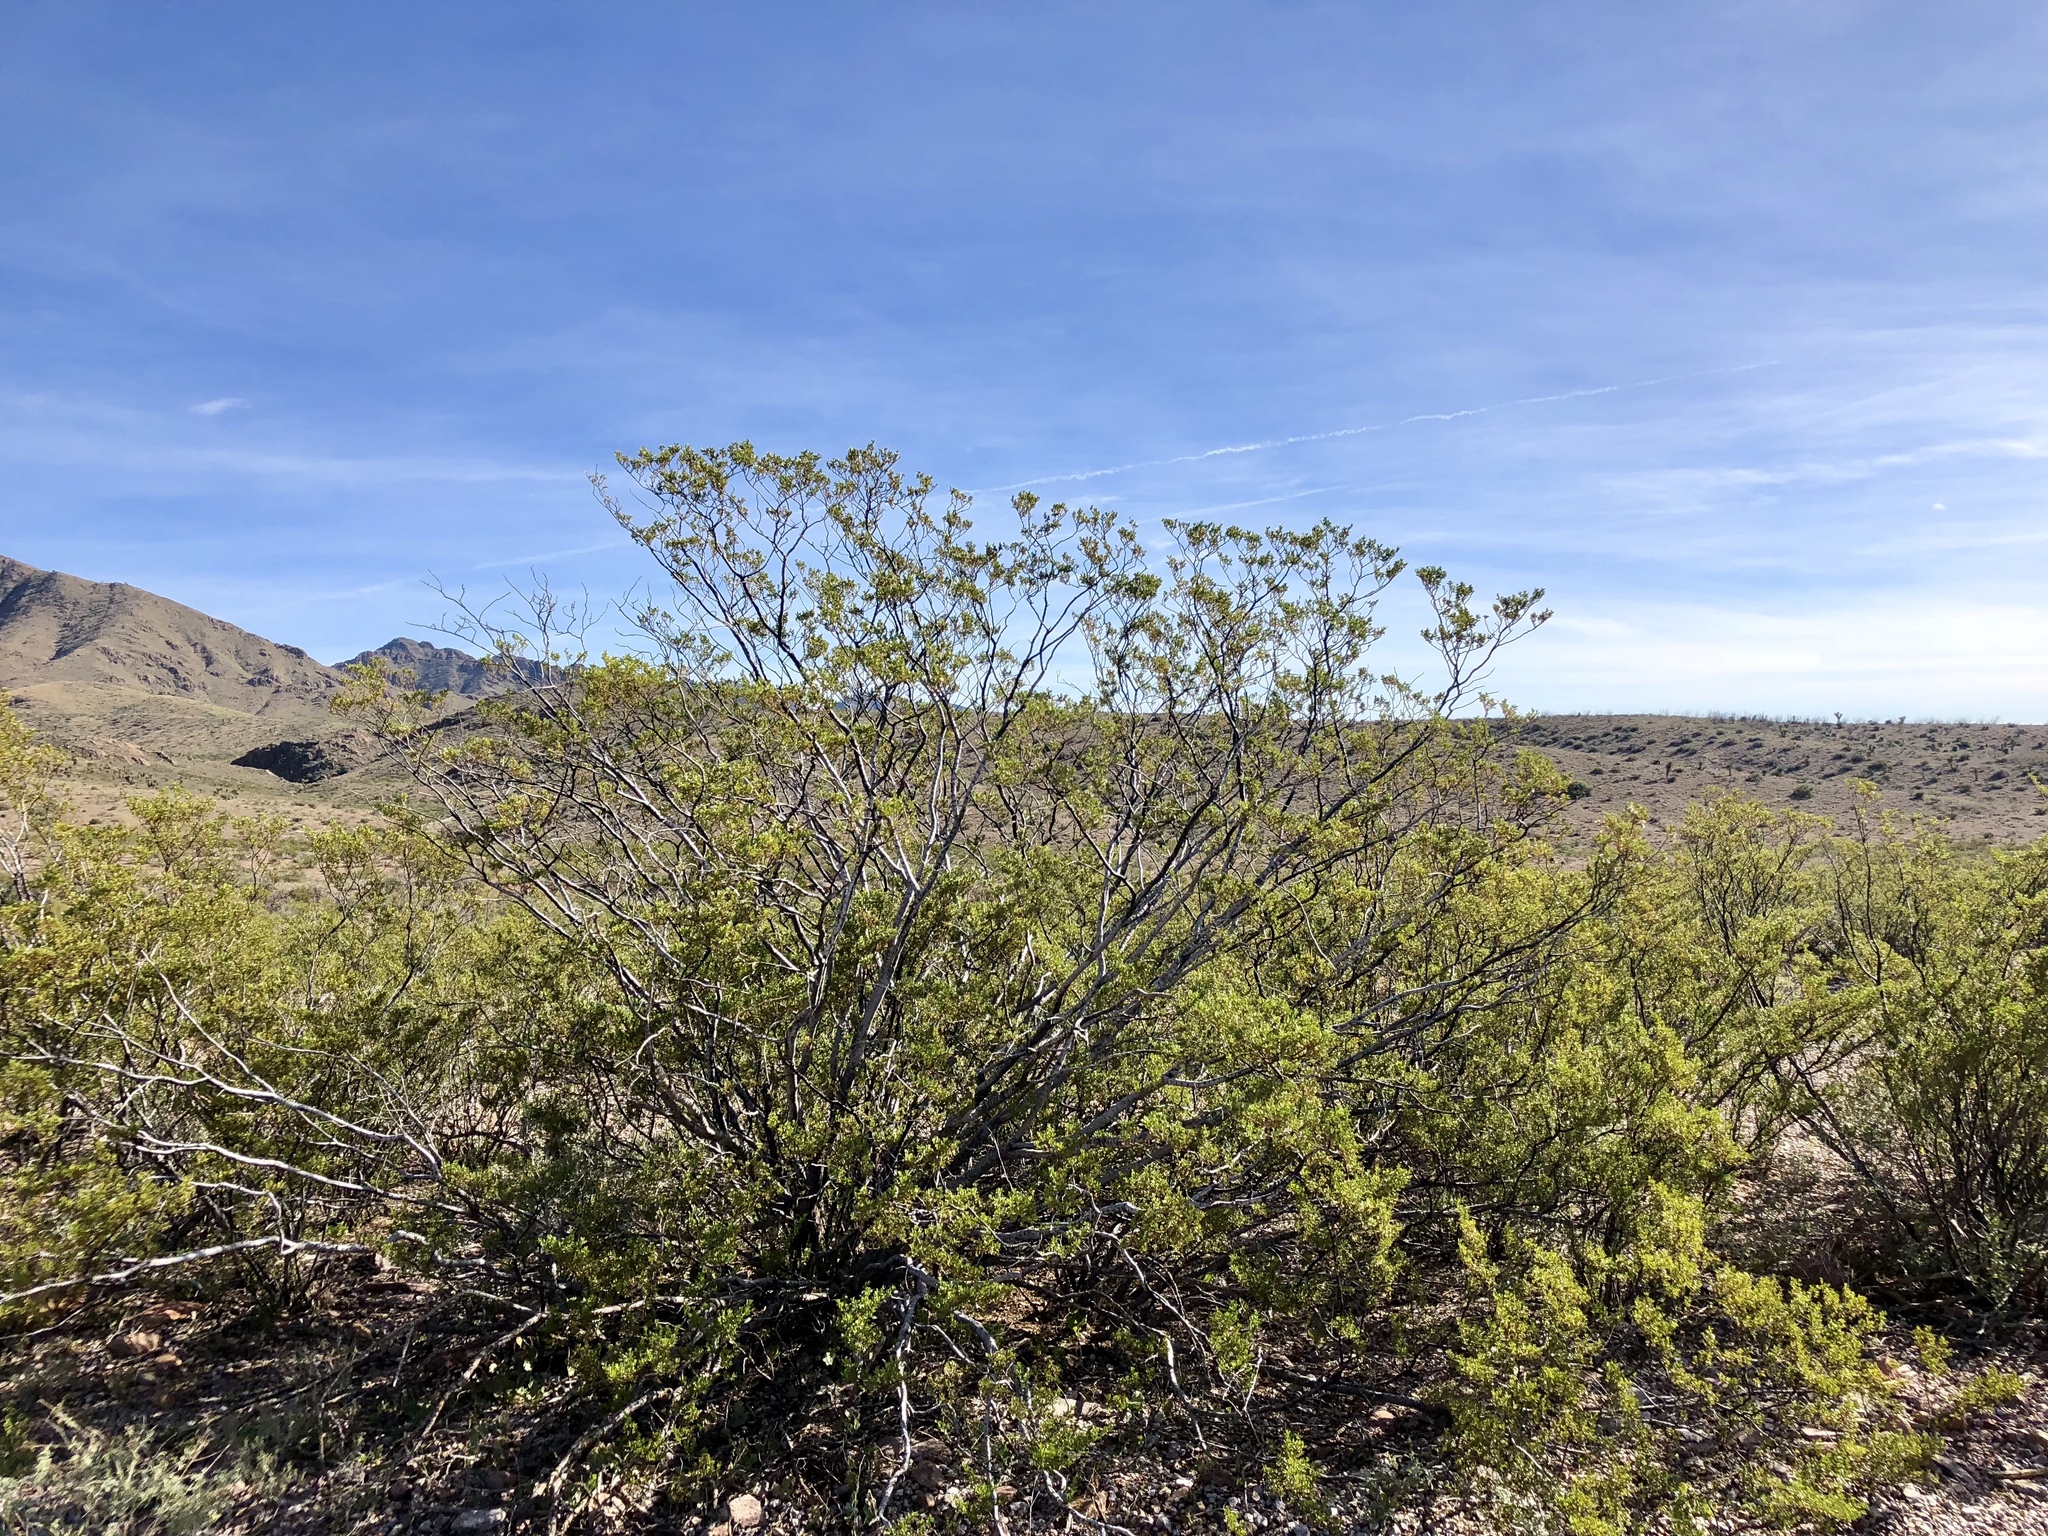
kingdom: Plantae
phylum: Tracheophyta
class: Magnoliopsida
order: Zygophyllales
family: Zygophyllaceae
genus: Larrea
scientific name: Larrea tridentata
